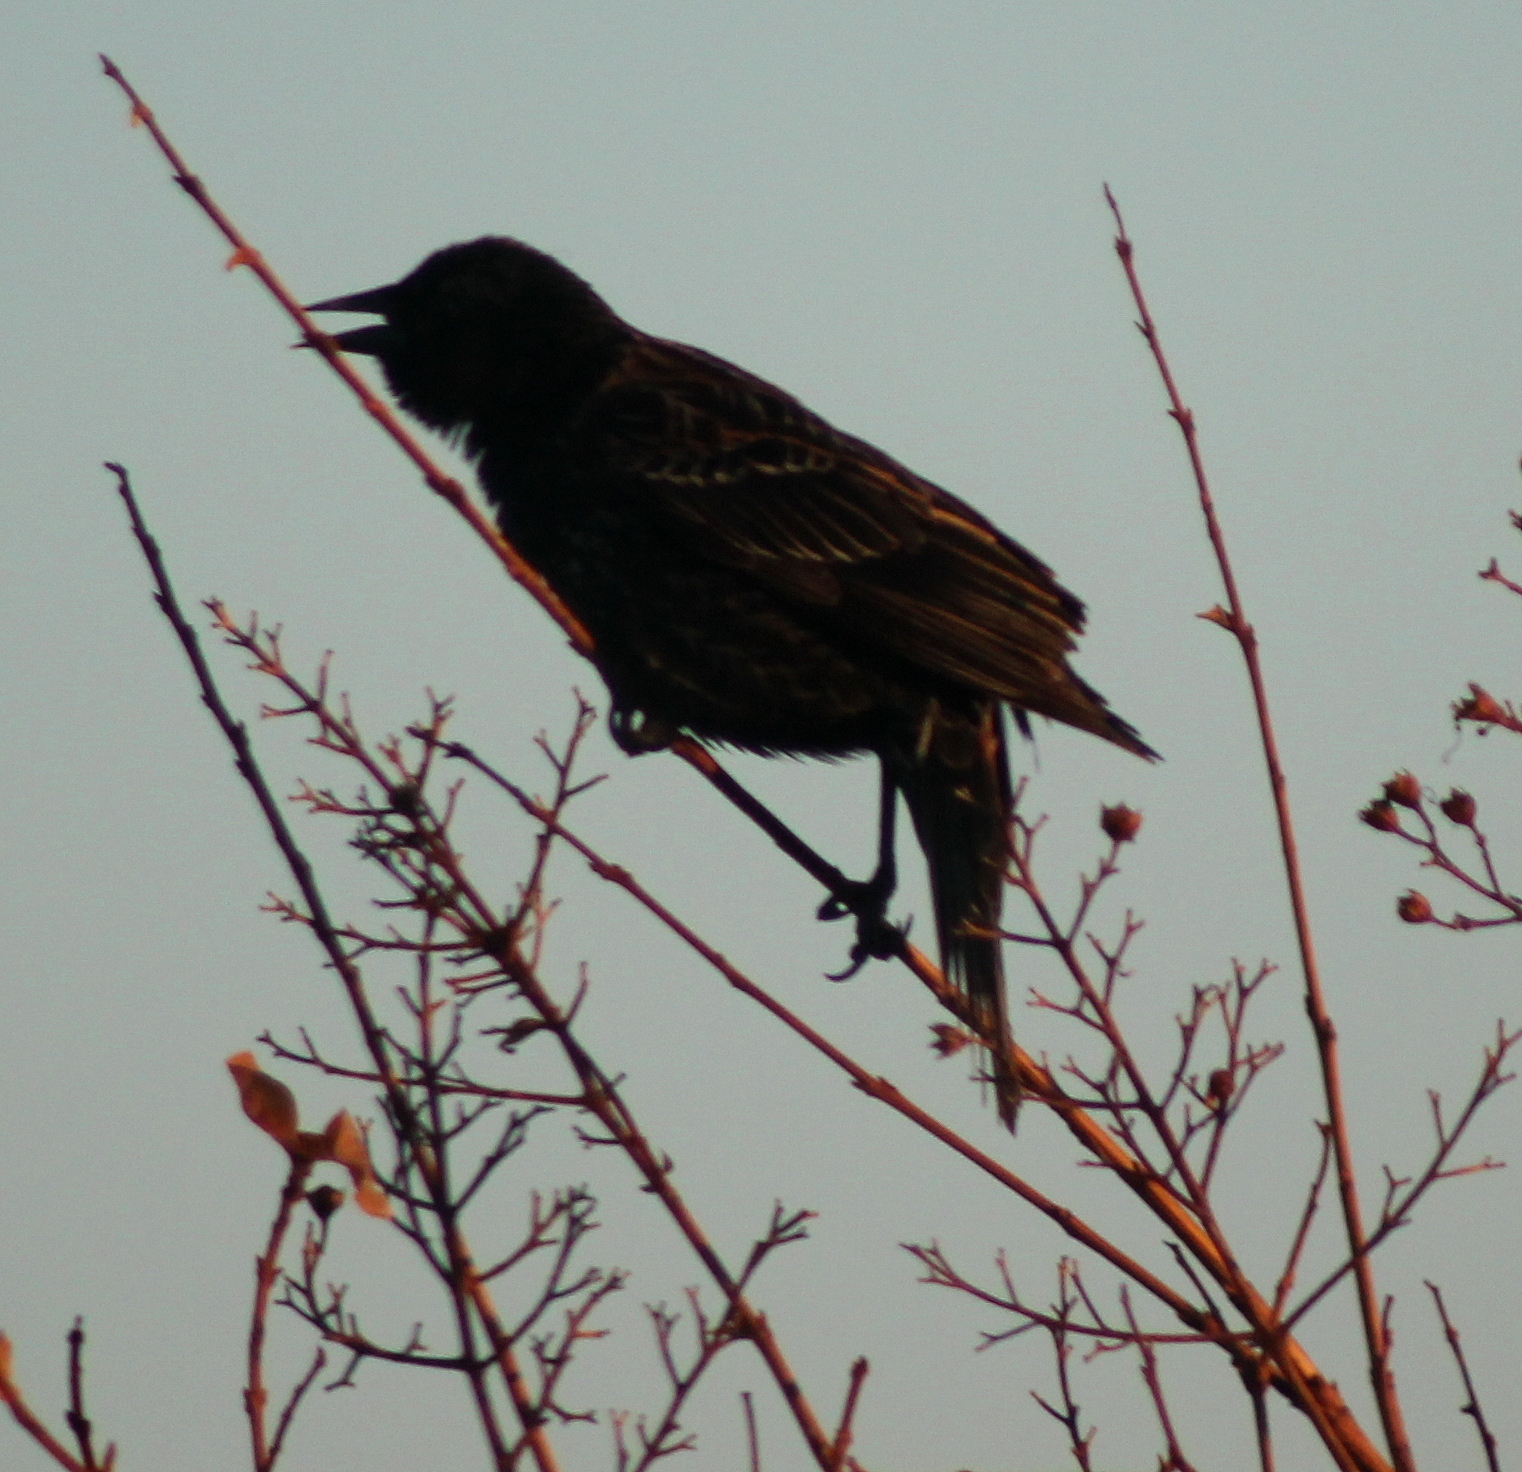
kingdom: Animalia
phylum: Chordata
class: Aves
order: Passeriformes
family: Icteridae
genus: Agelaius
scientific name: Agelaius phoeniceus
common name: Red-winged blackbird
